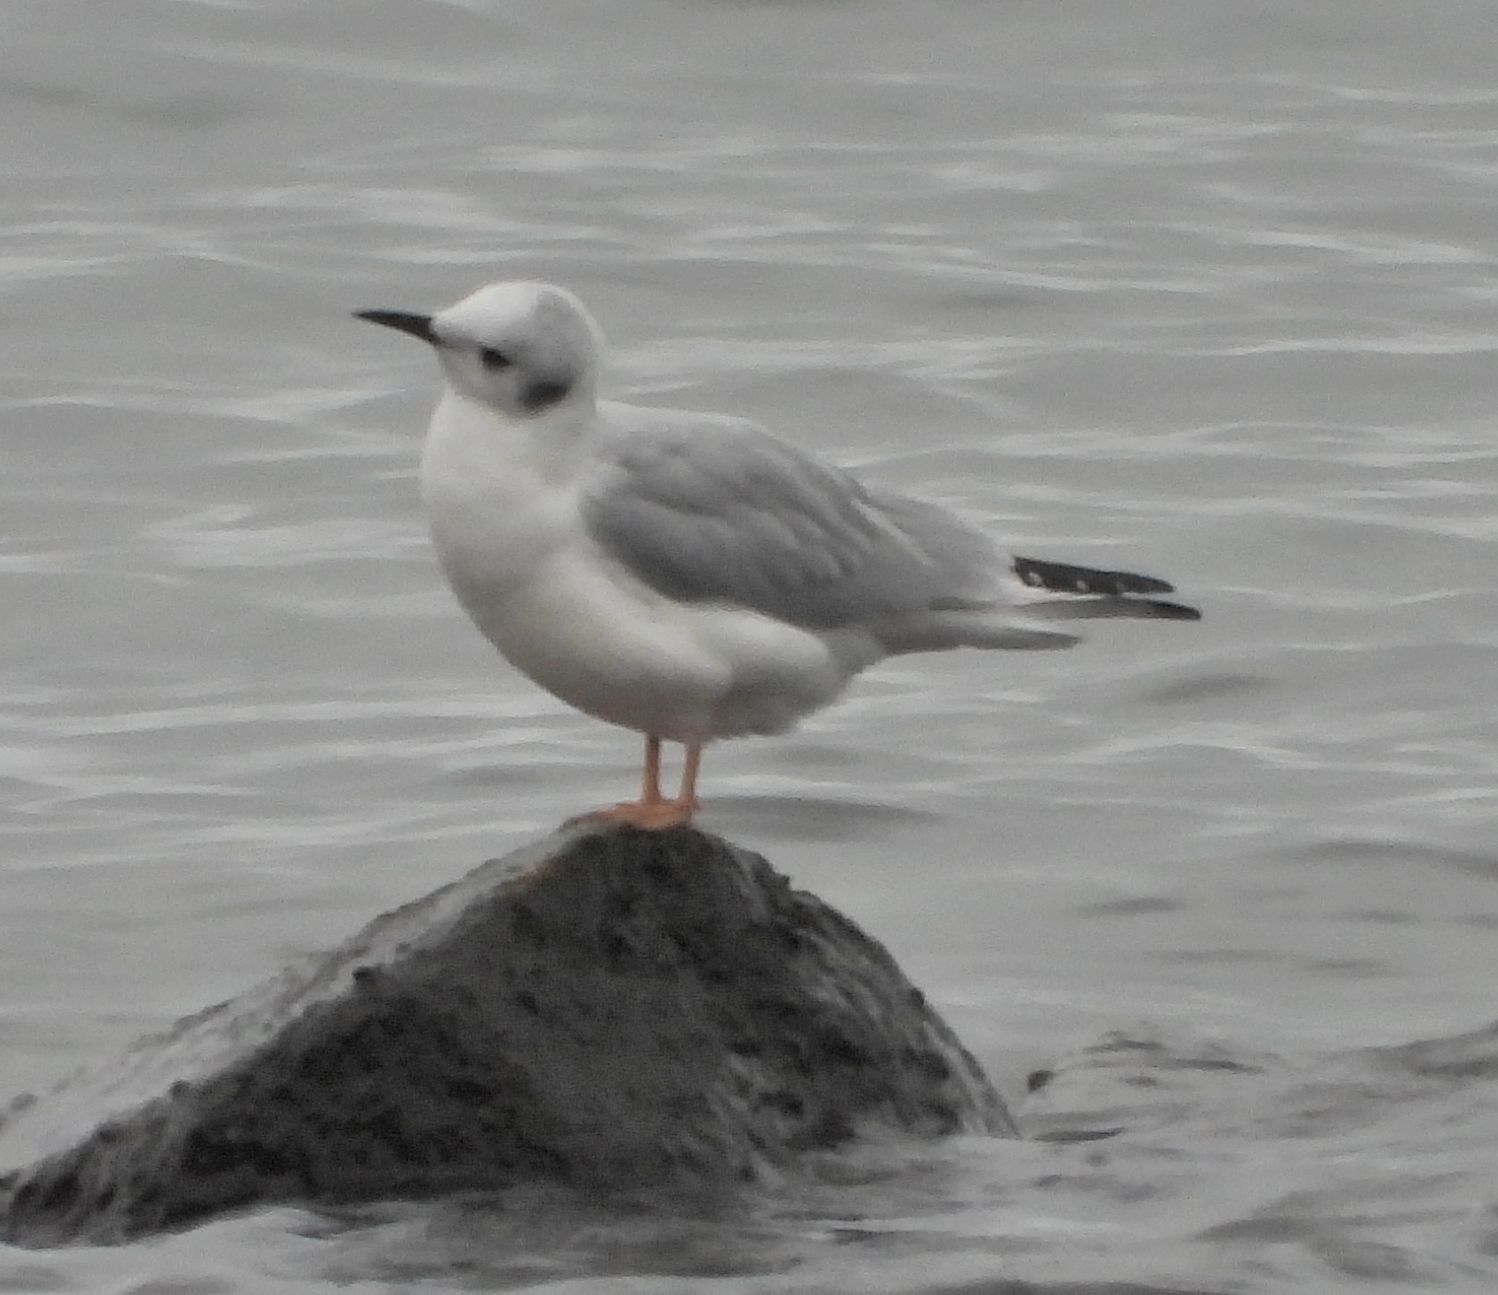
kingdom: Animalia
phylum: Chordata
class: Aves
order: Charadriiformes
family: Laridae
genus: Chroicocephalus
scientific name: Chroicocephalus philadelphia
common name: Bonaparte's gull
